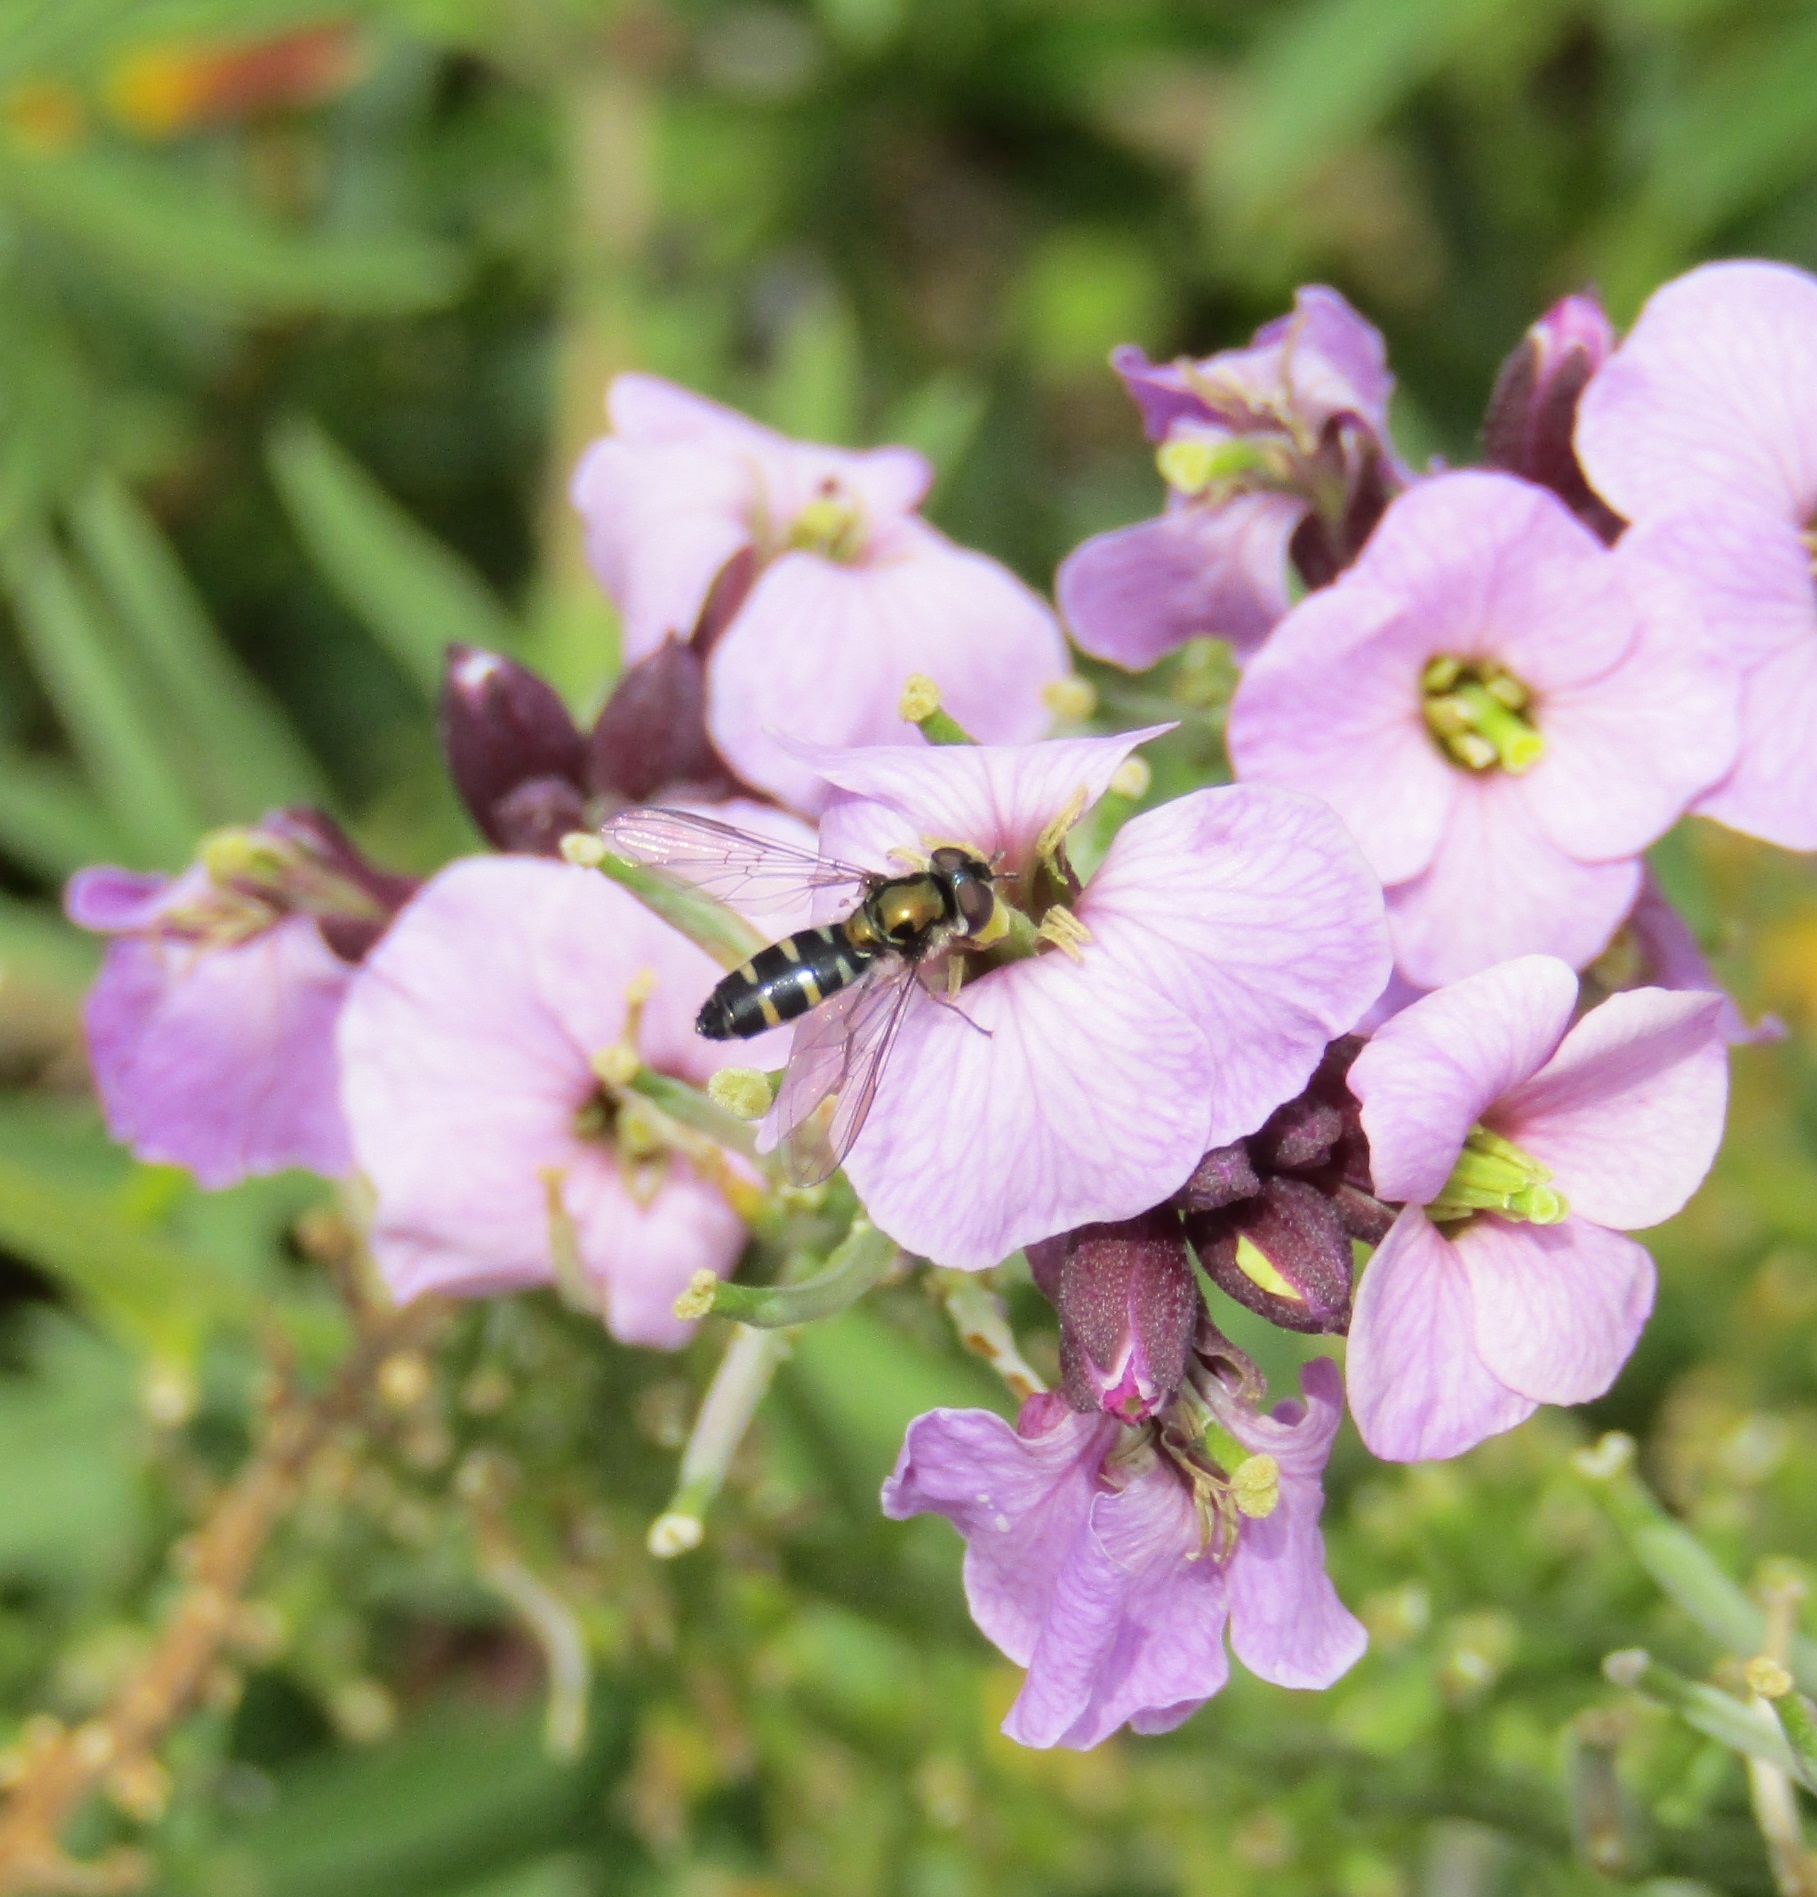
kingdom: Animalia
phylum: Arthropoda
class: Insecta
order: Diptera
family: Syrphidae
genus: Melangyna
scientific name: Melangyna novaezelandiae
